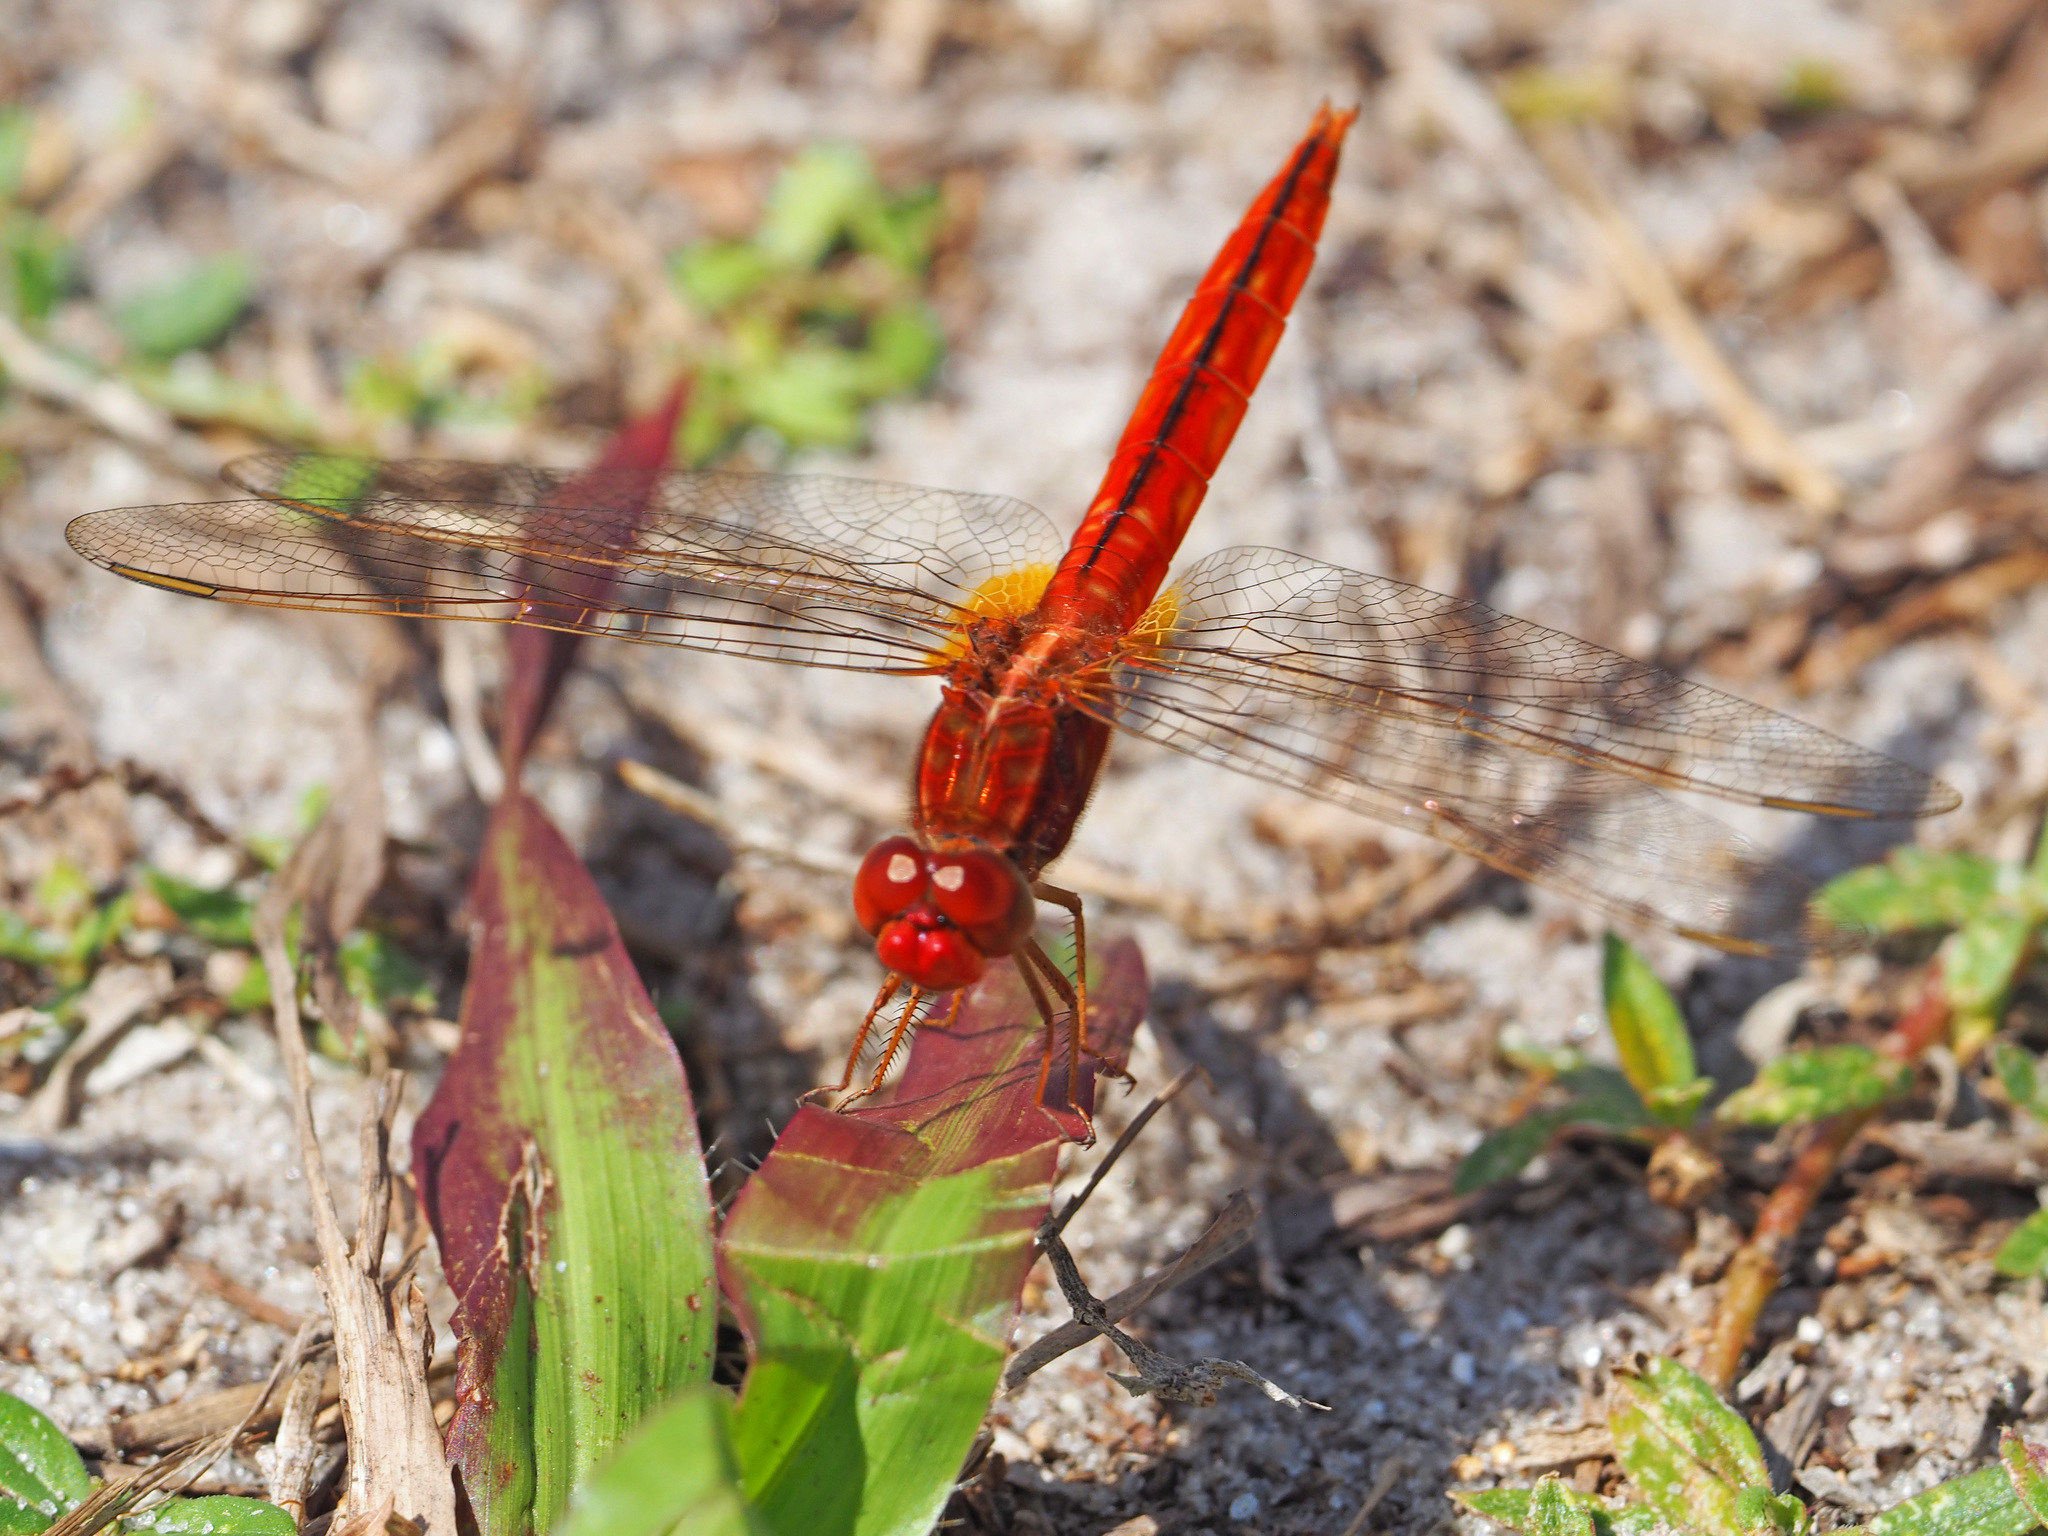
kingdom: Animalia
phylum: Arthropoda
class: Insecta
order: Odonata
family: Libellulidae
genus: Crocothemis
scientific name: Crocothemis servilia
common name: Scarlet skimmer
